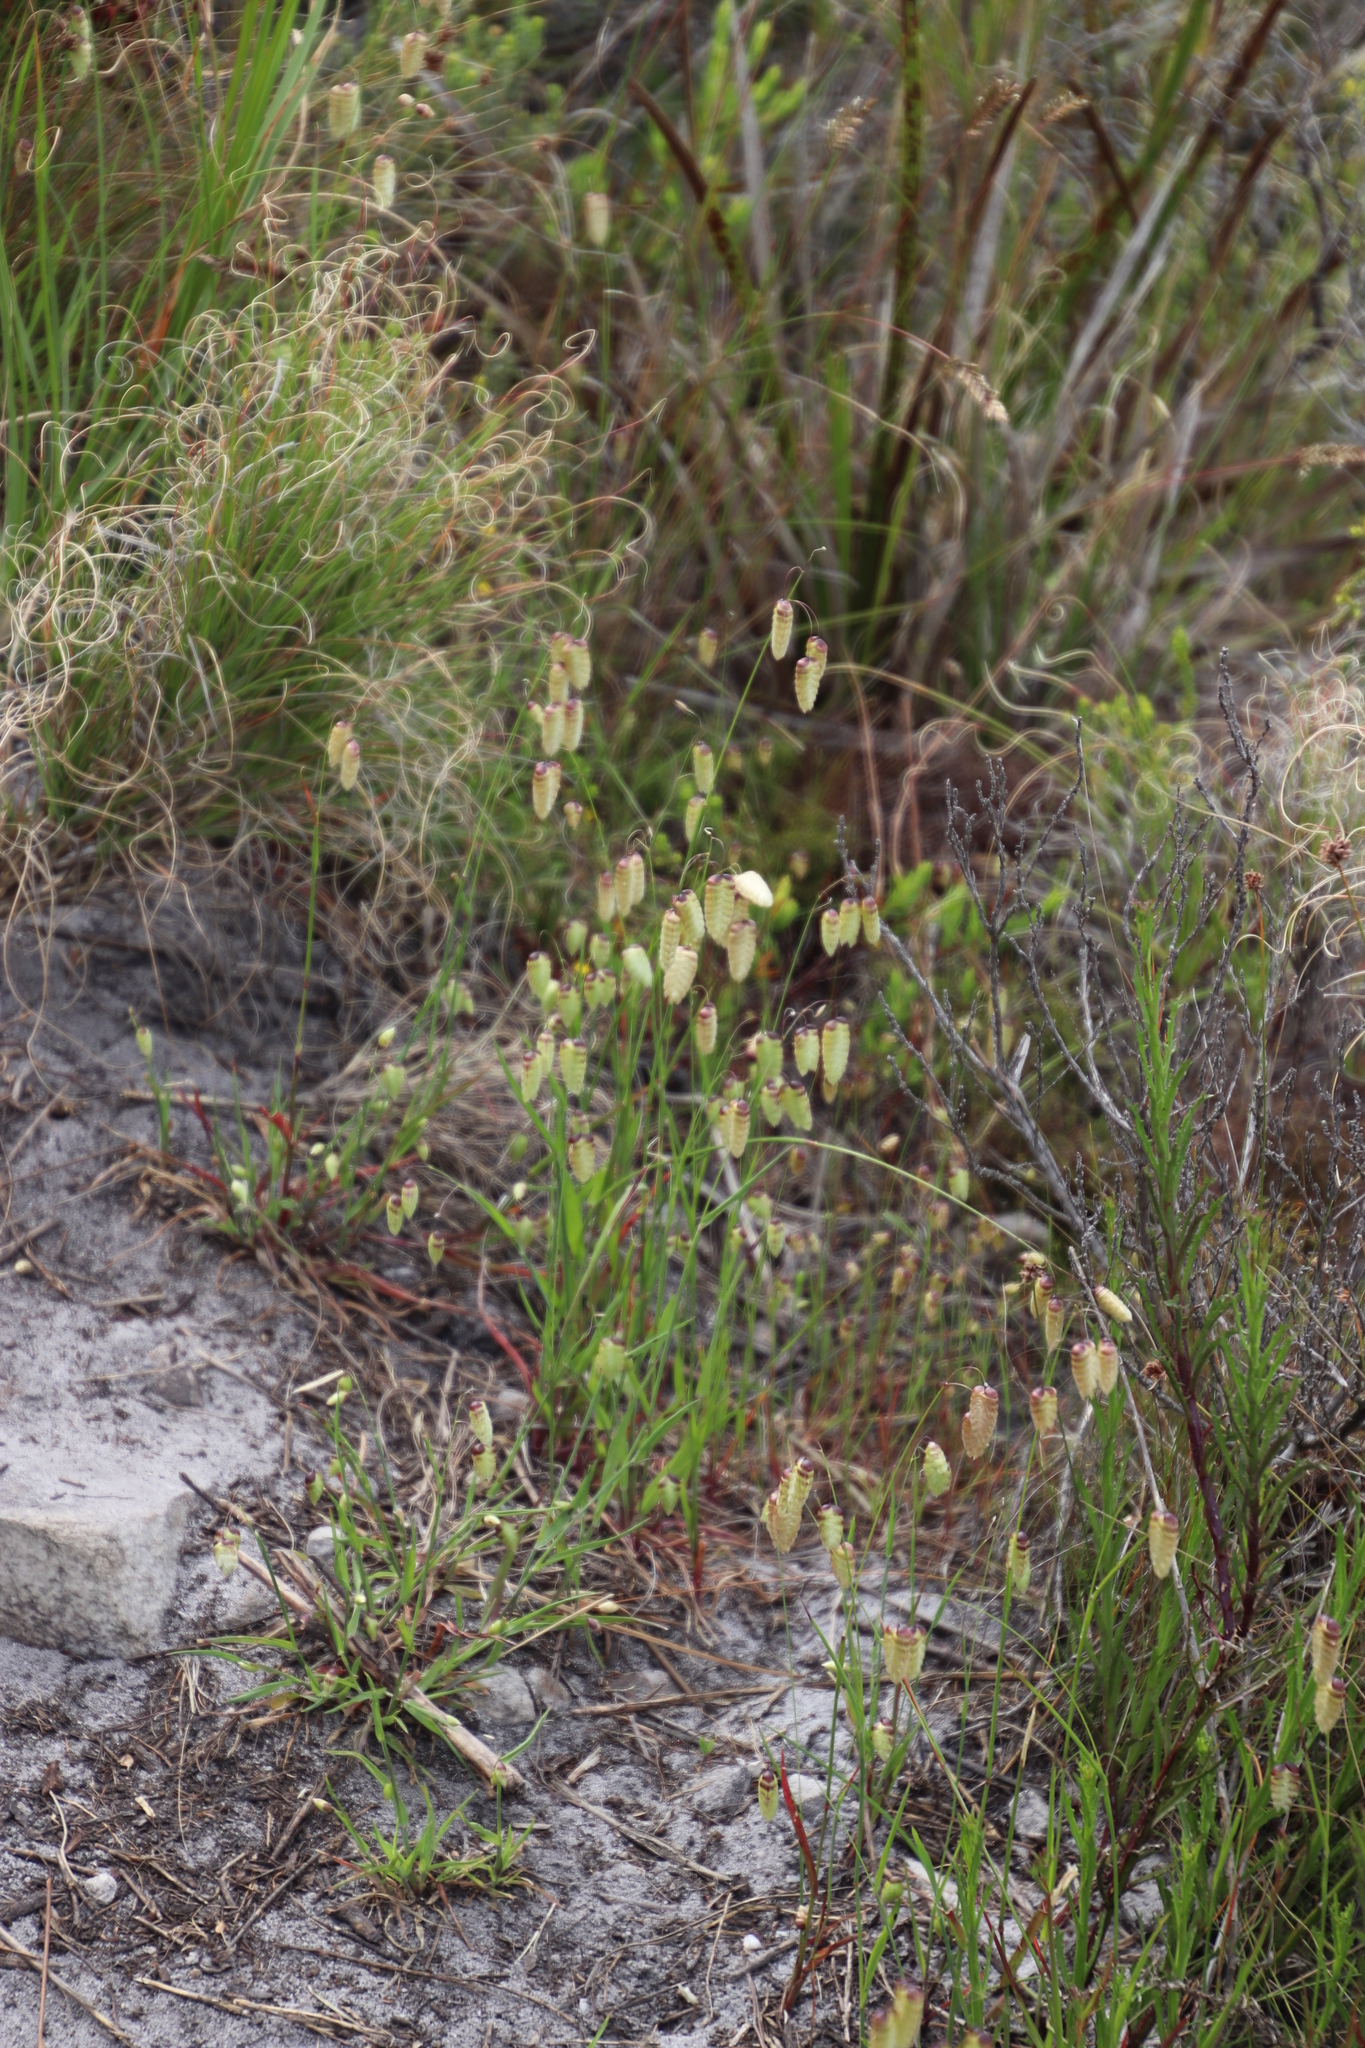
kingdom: Plantae
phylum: Tracheophyta
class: Liliopsida
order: Poales
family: Poaceae
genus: Briza
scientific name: Briza maxima
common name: Big quakinggrass
